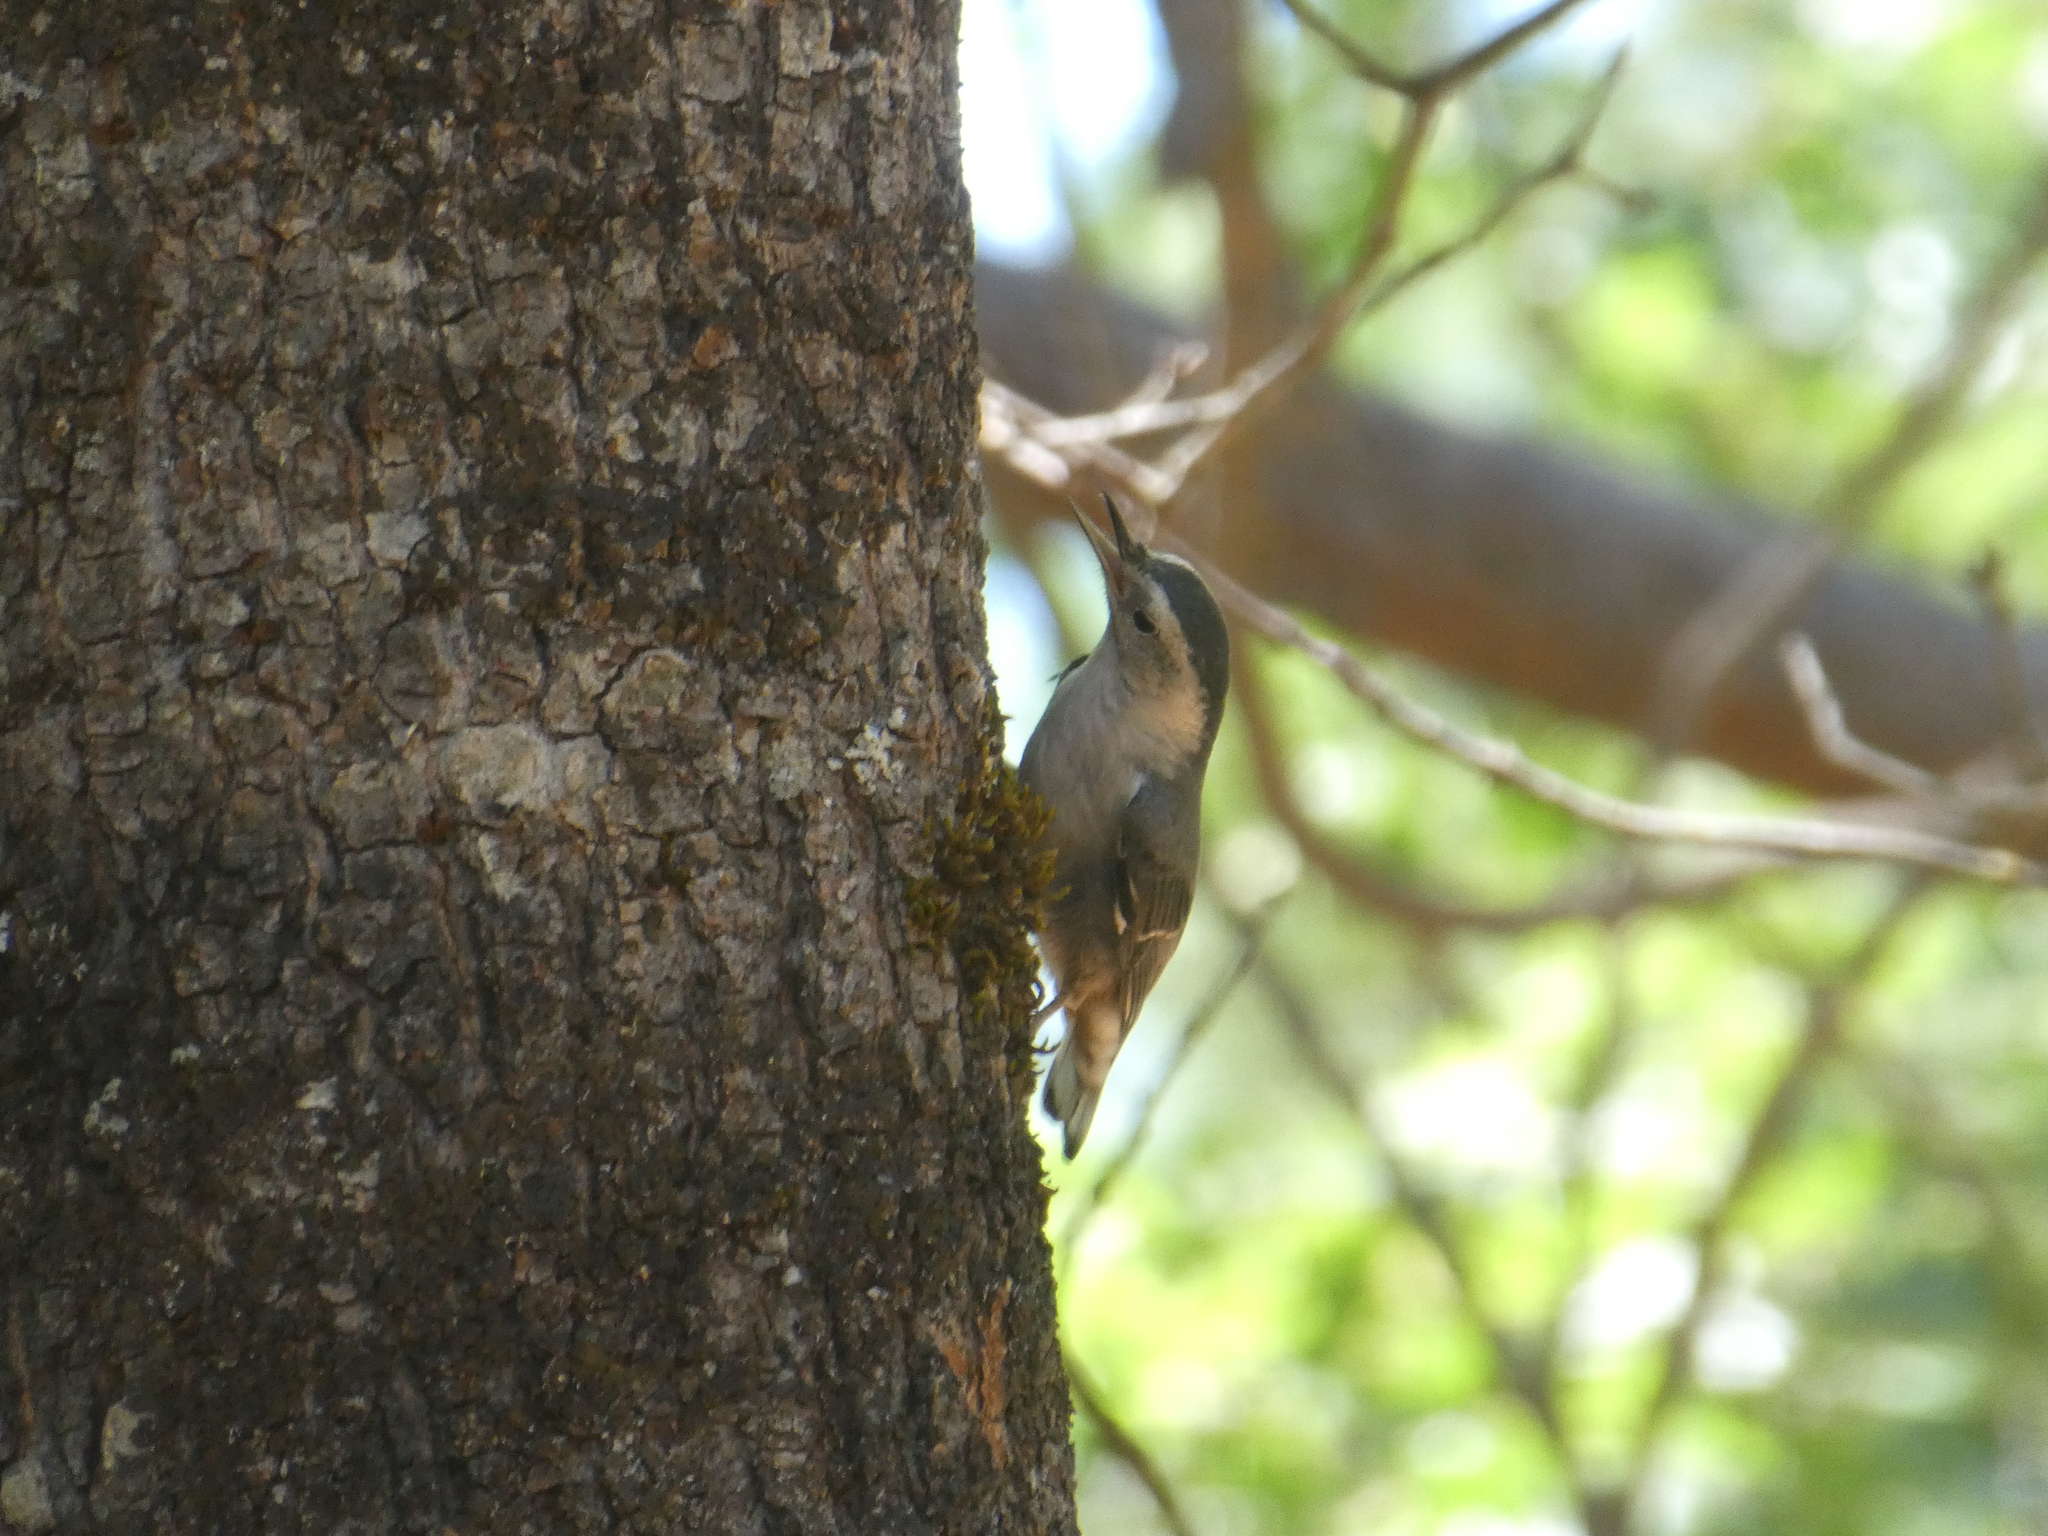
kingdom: Animalia
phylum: Chordata
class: Aves
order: Passeriformes
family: Sittidae
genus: Sitta
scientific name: Sitta carolinensis
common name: White-breasted nuthatch
